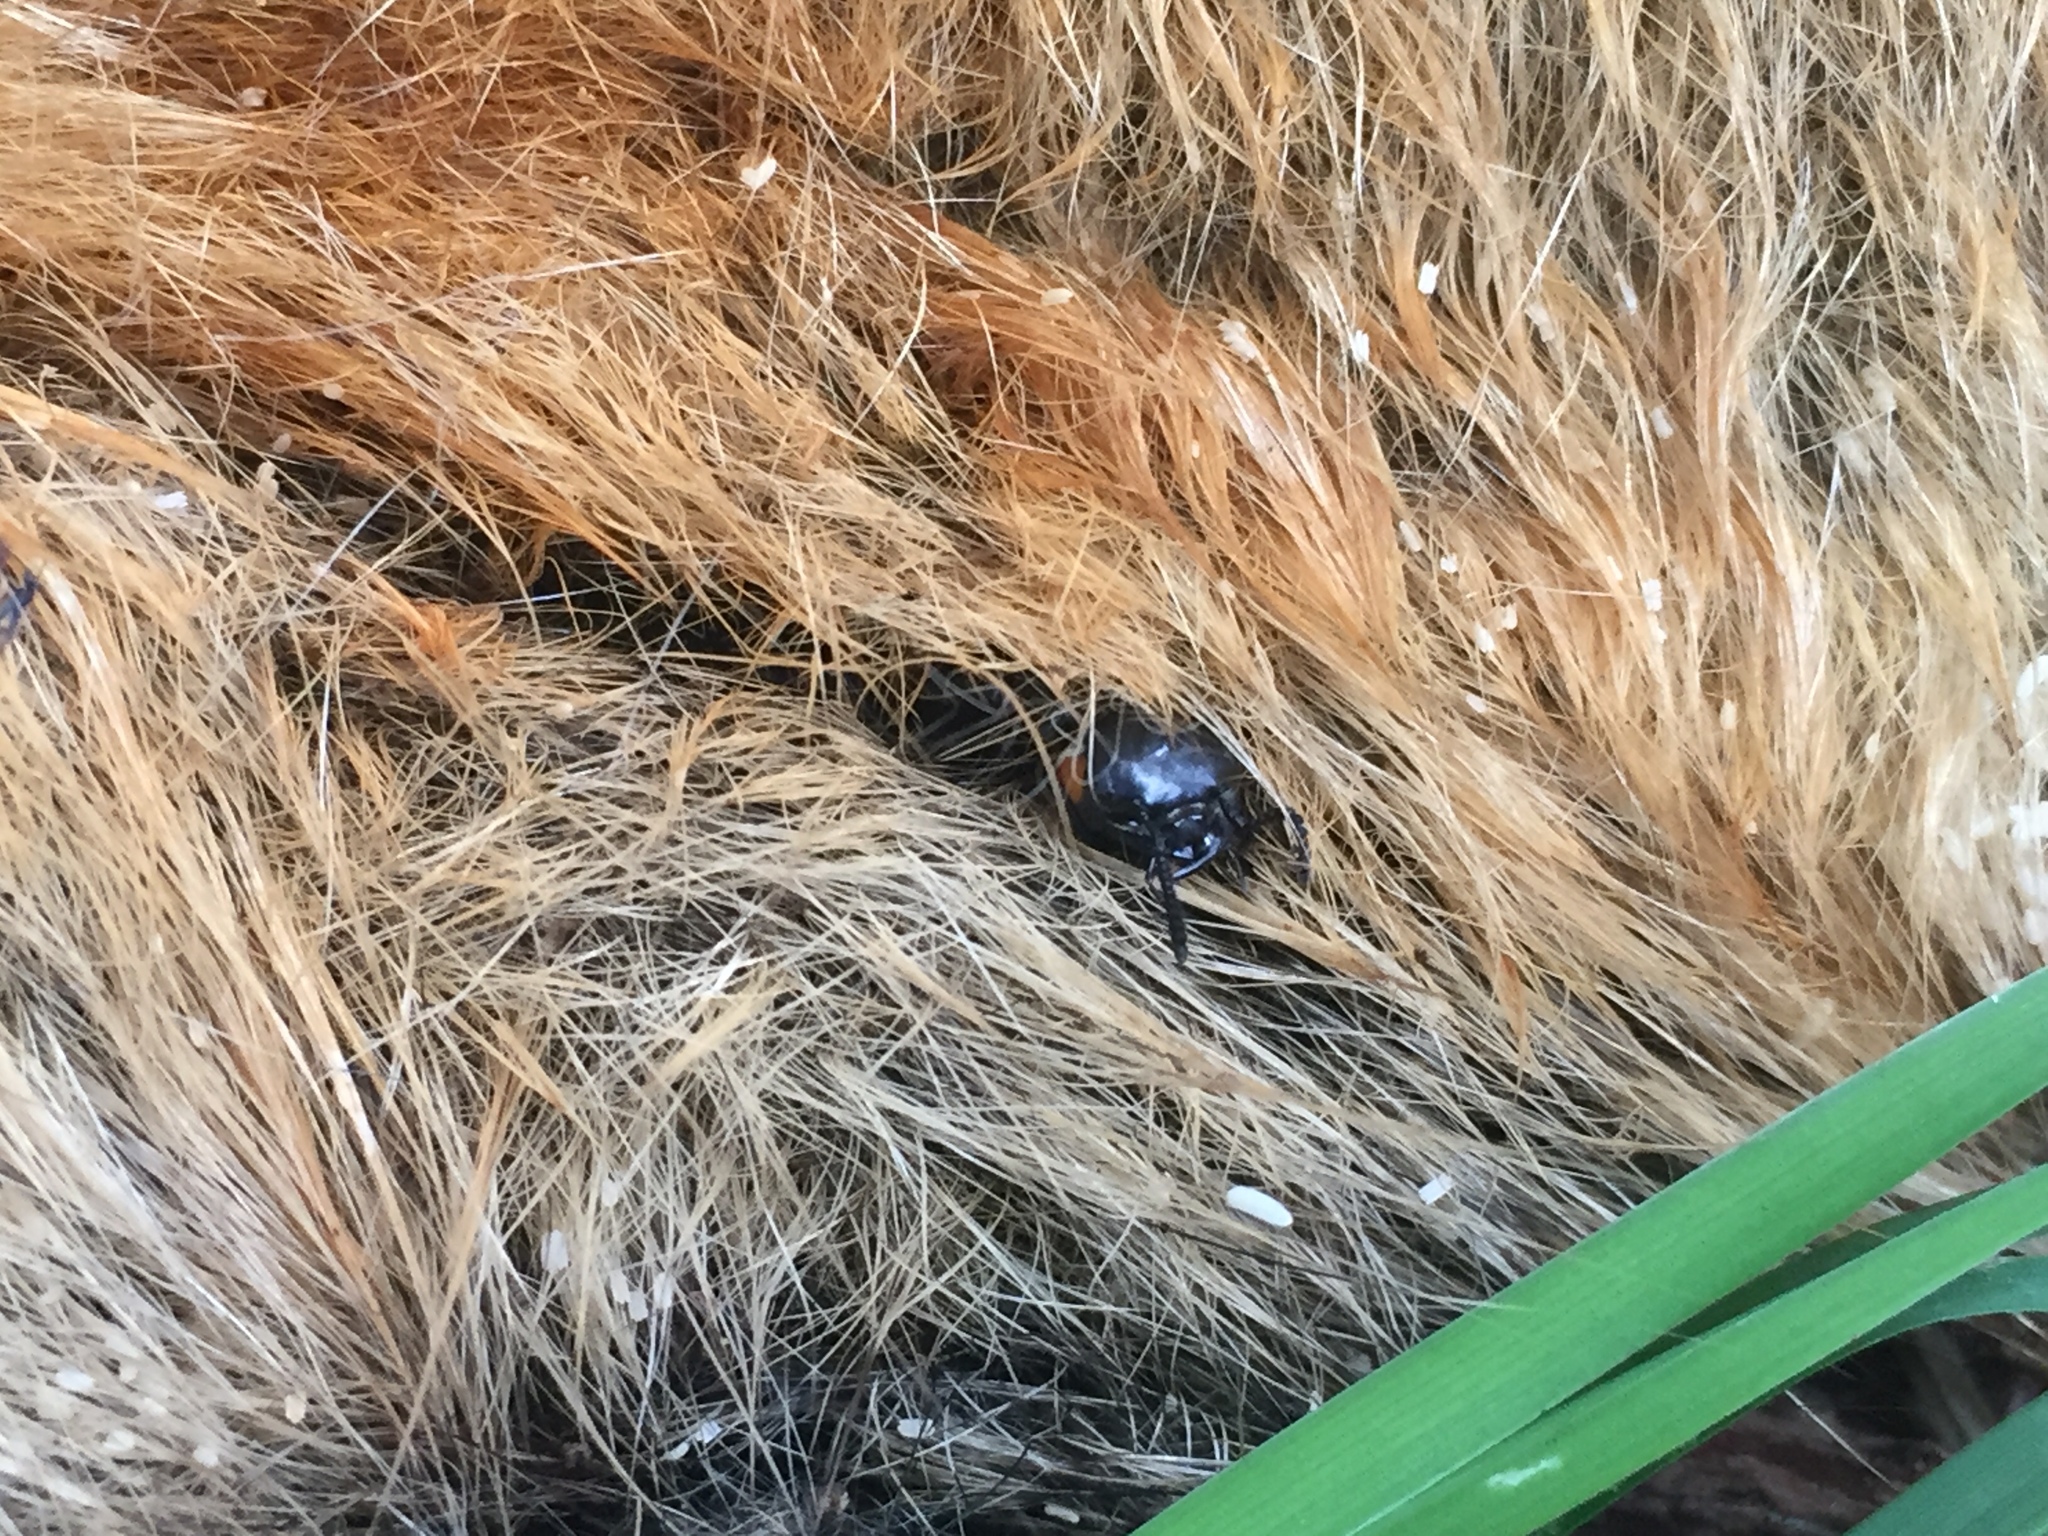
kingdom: Animalia
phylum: Arthropoda
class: Insecta
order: Coleoptera
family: Staphylinidae
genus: Creophilus
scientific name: Creophilus oculatus
